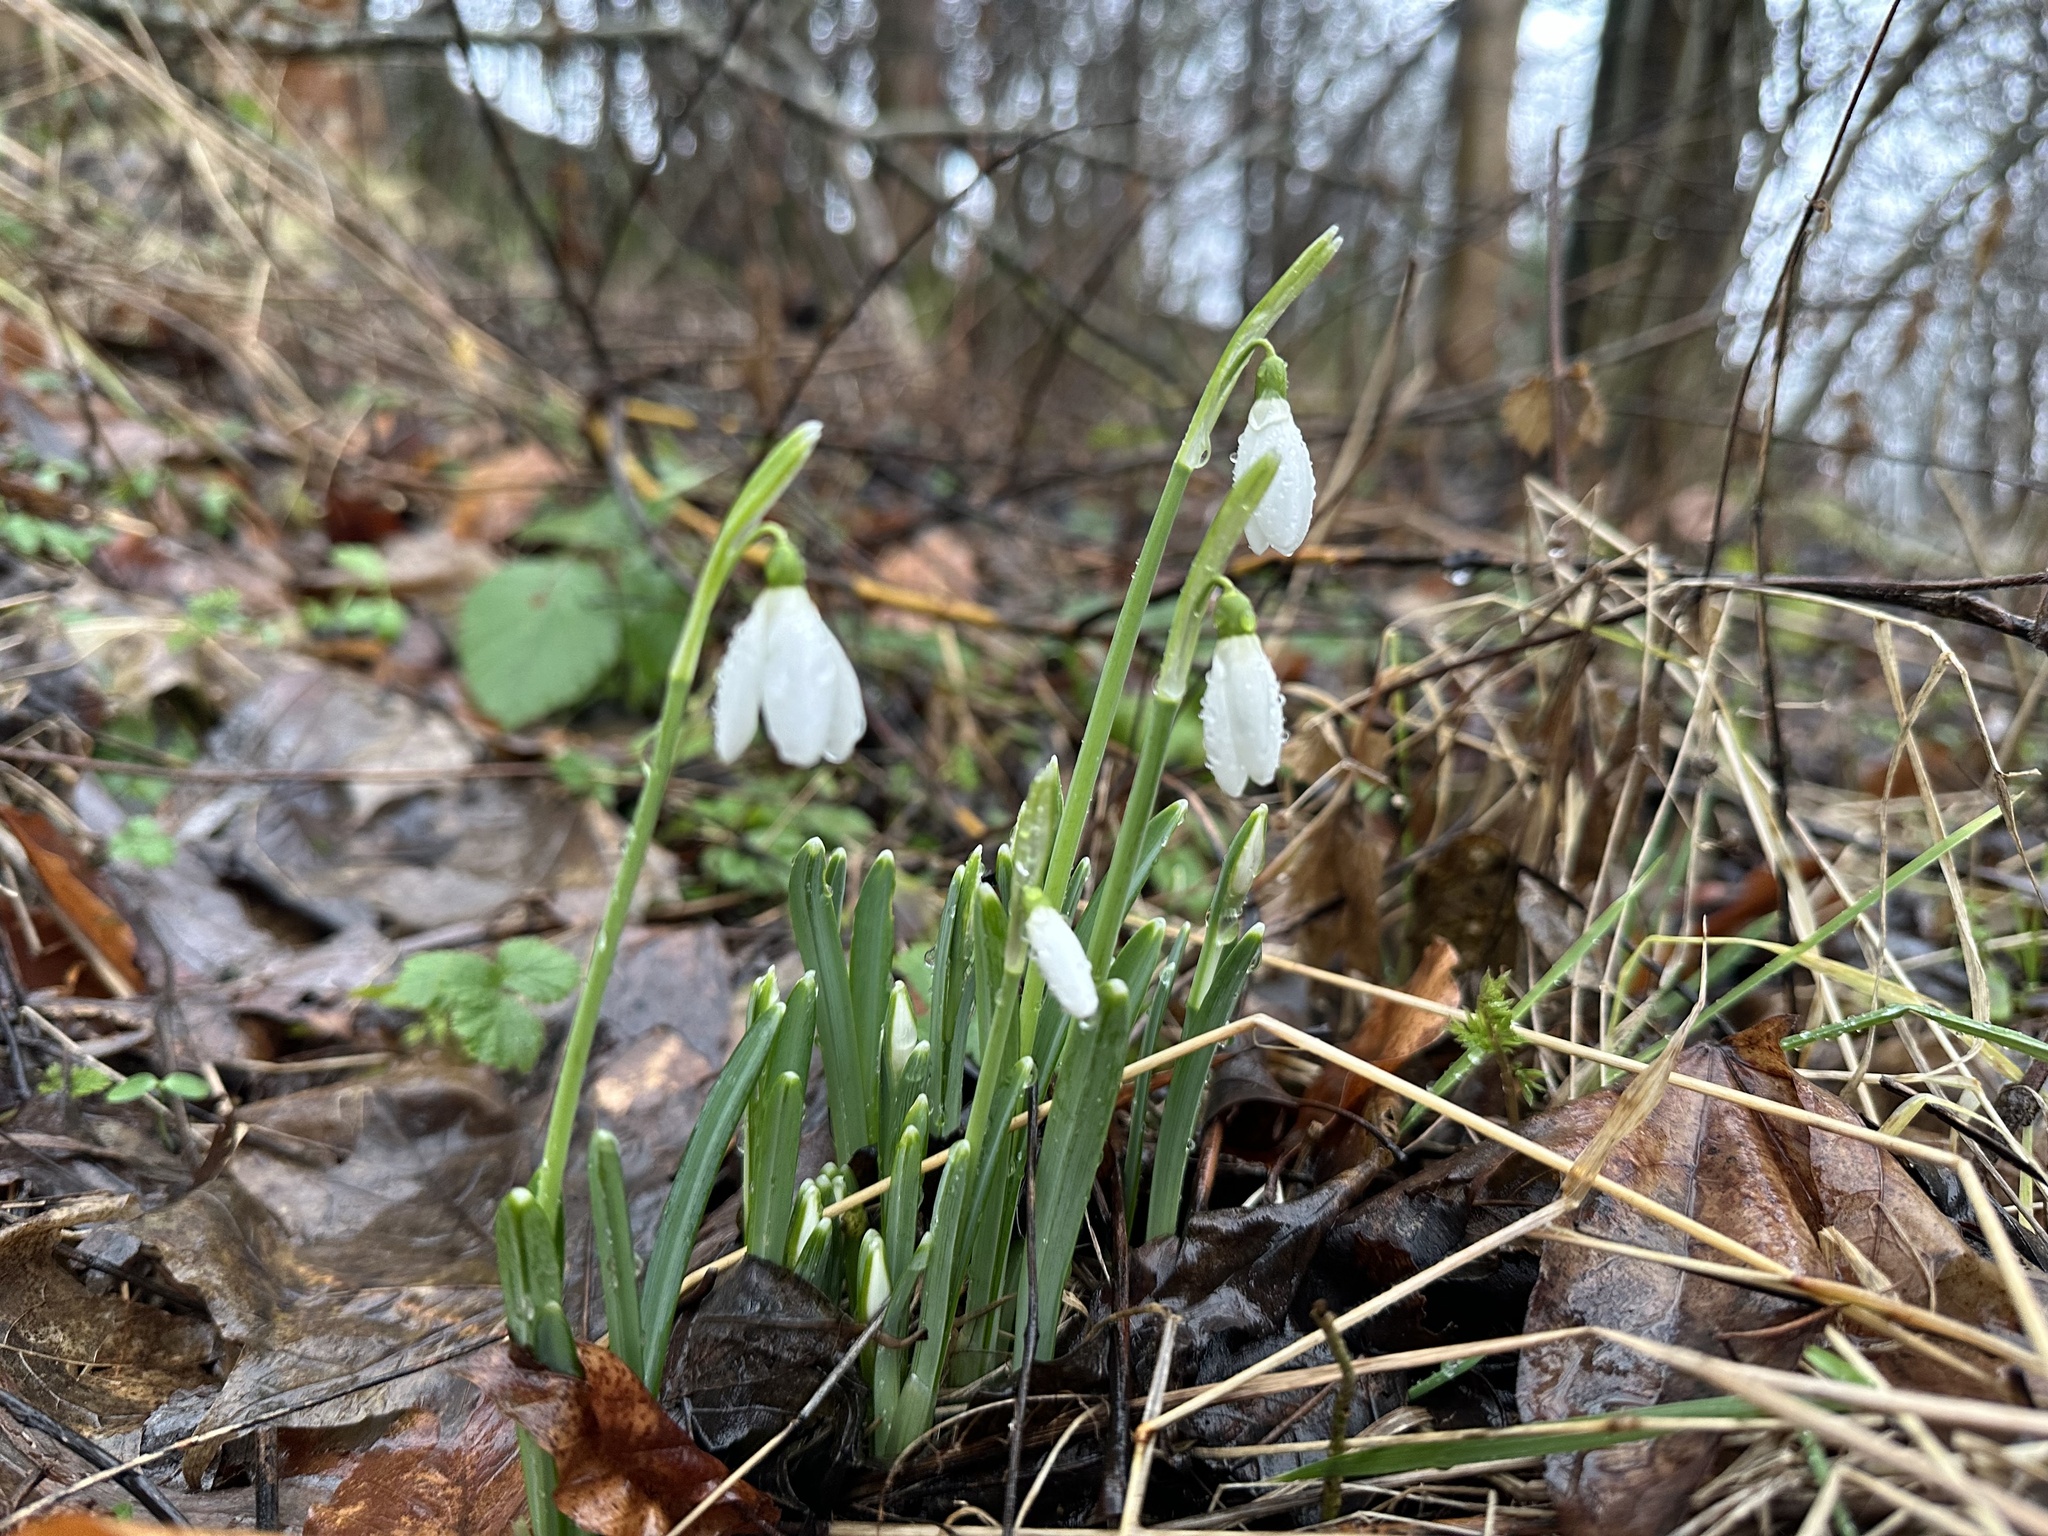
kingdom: Plantae
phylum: Tracheophyta
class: Liliopsida
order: Asparagales
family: Amaryllidaceae
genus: Galanthus
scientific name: Galanthus nivalis
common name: Snowdrop
